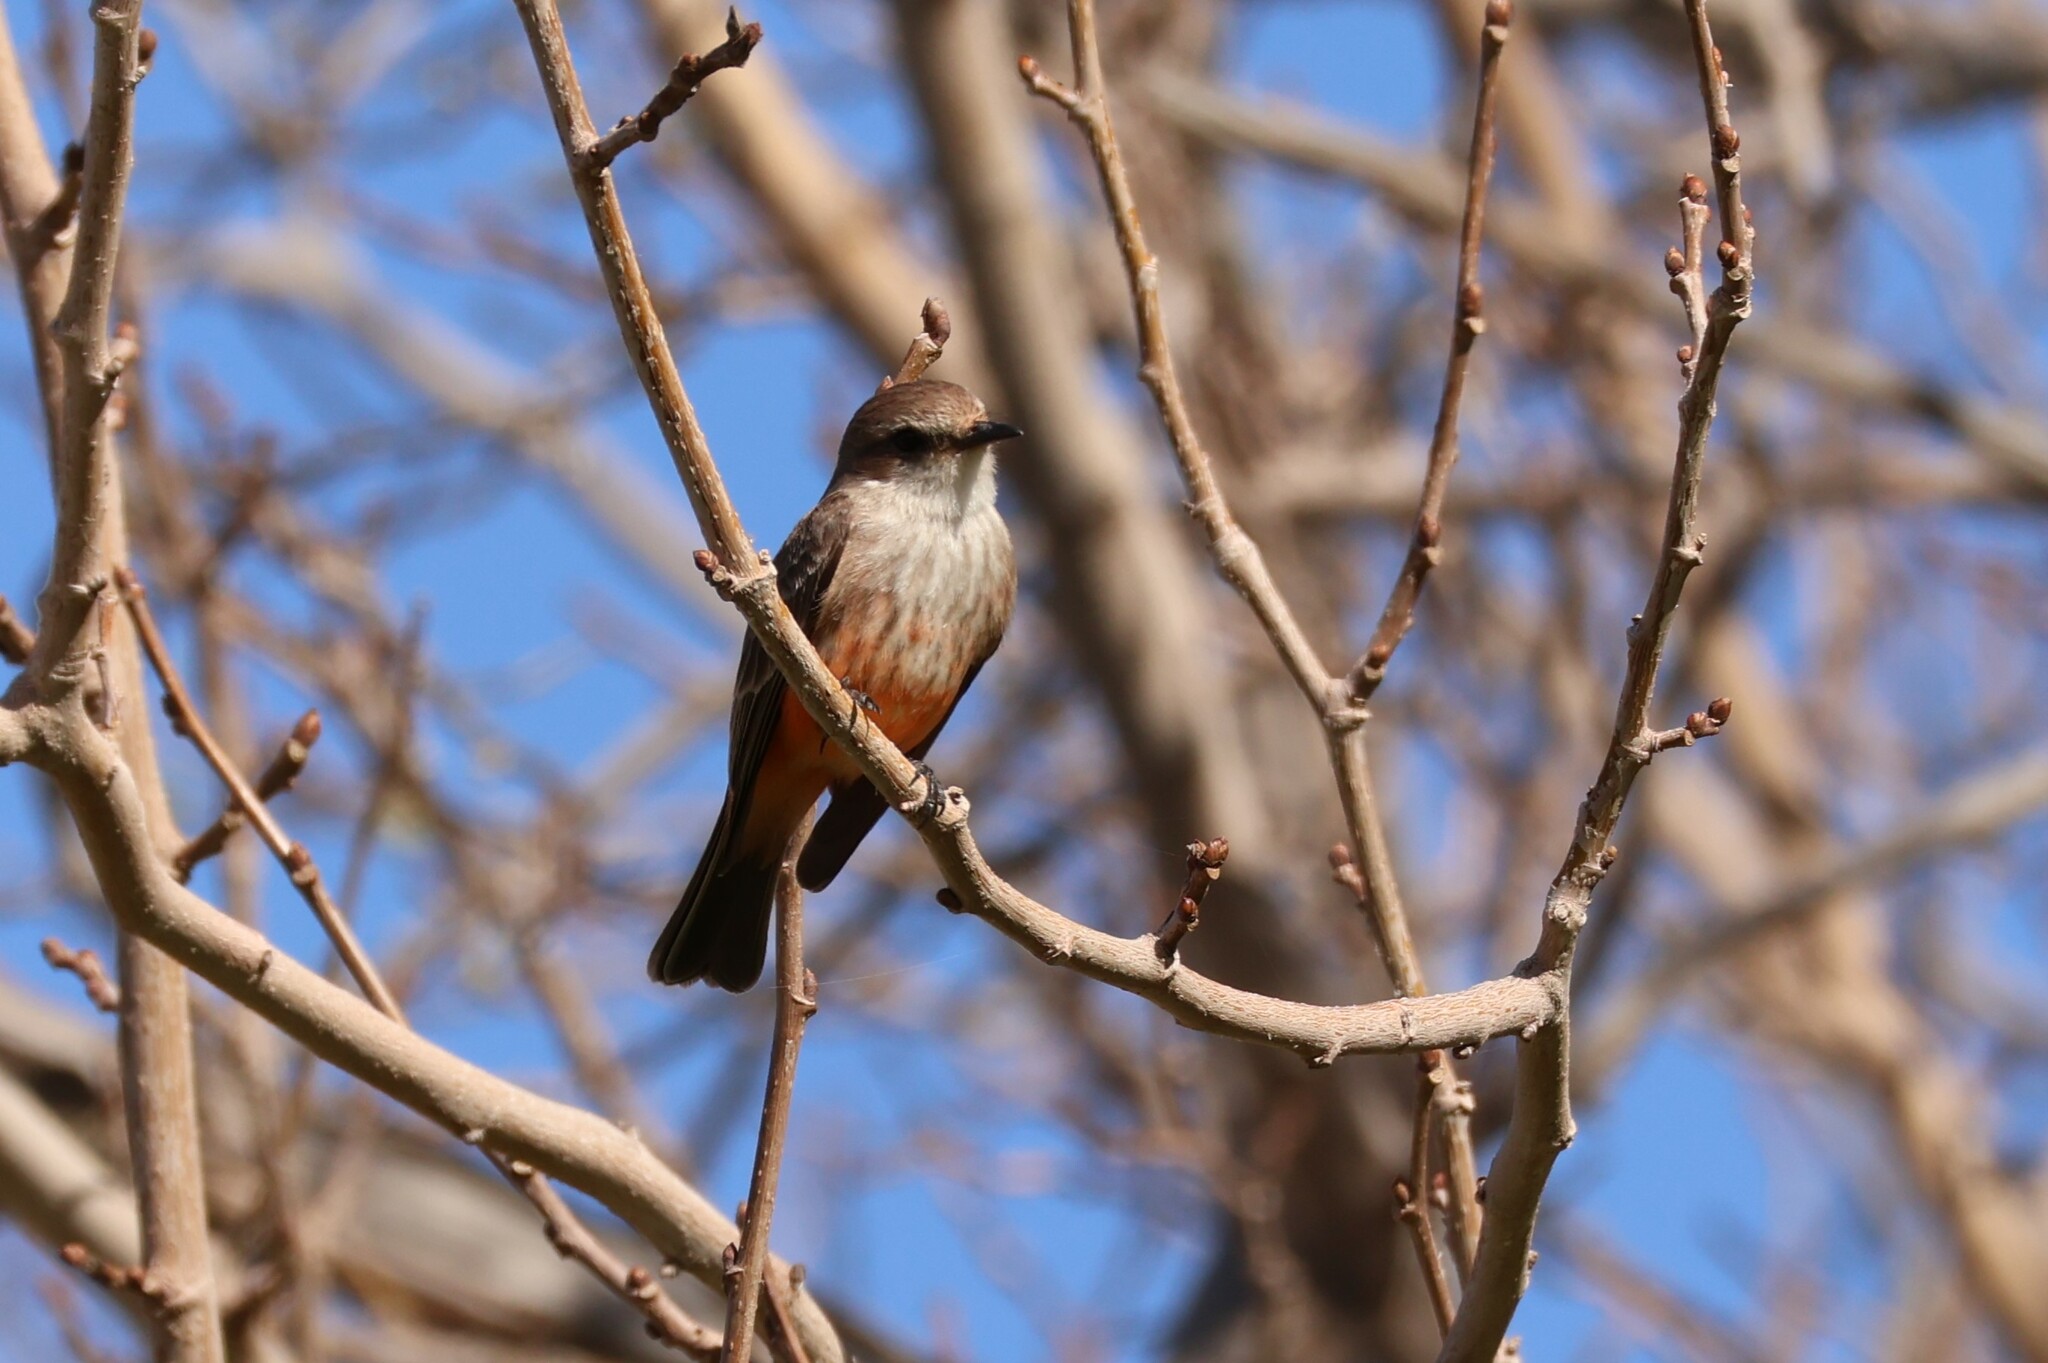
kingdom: Animalia
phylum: Chordata
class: Aves
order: Passeriformes
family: Tyrannidae
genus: Pyrocephalus
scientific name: Pyrocephalus rubinus
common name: Vermilion flycatcher
